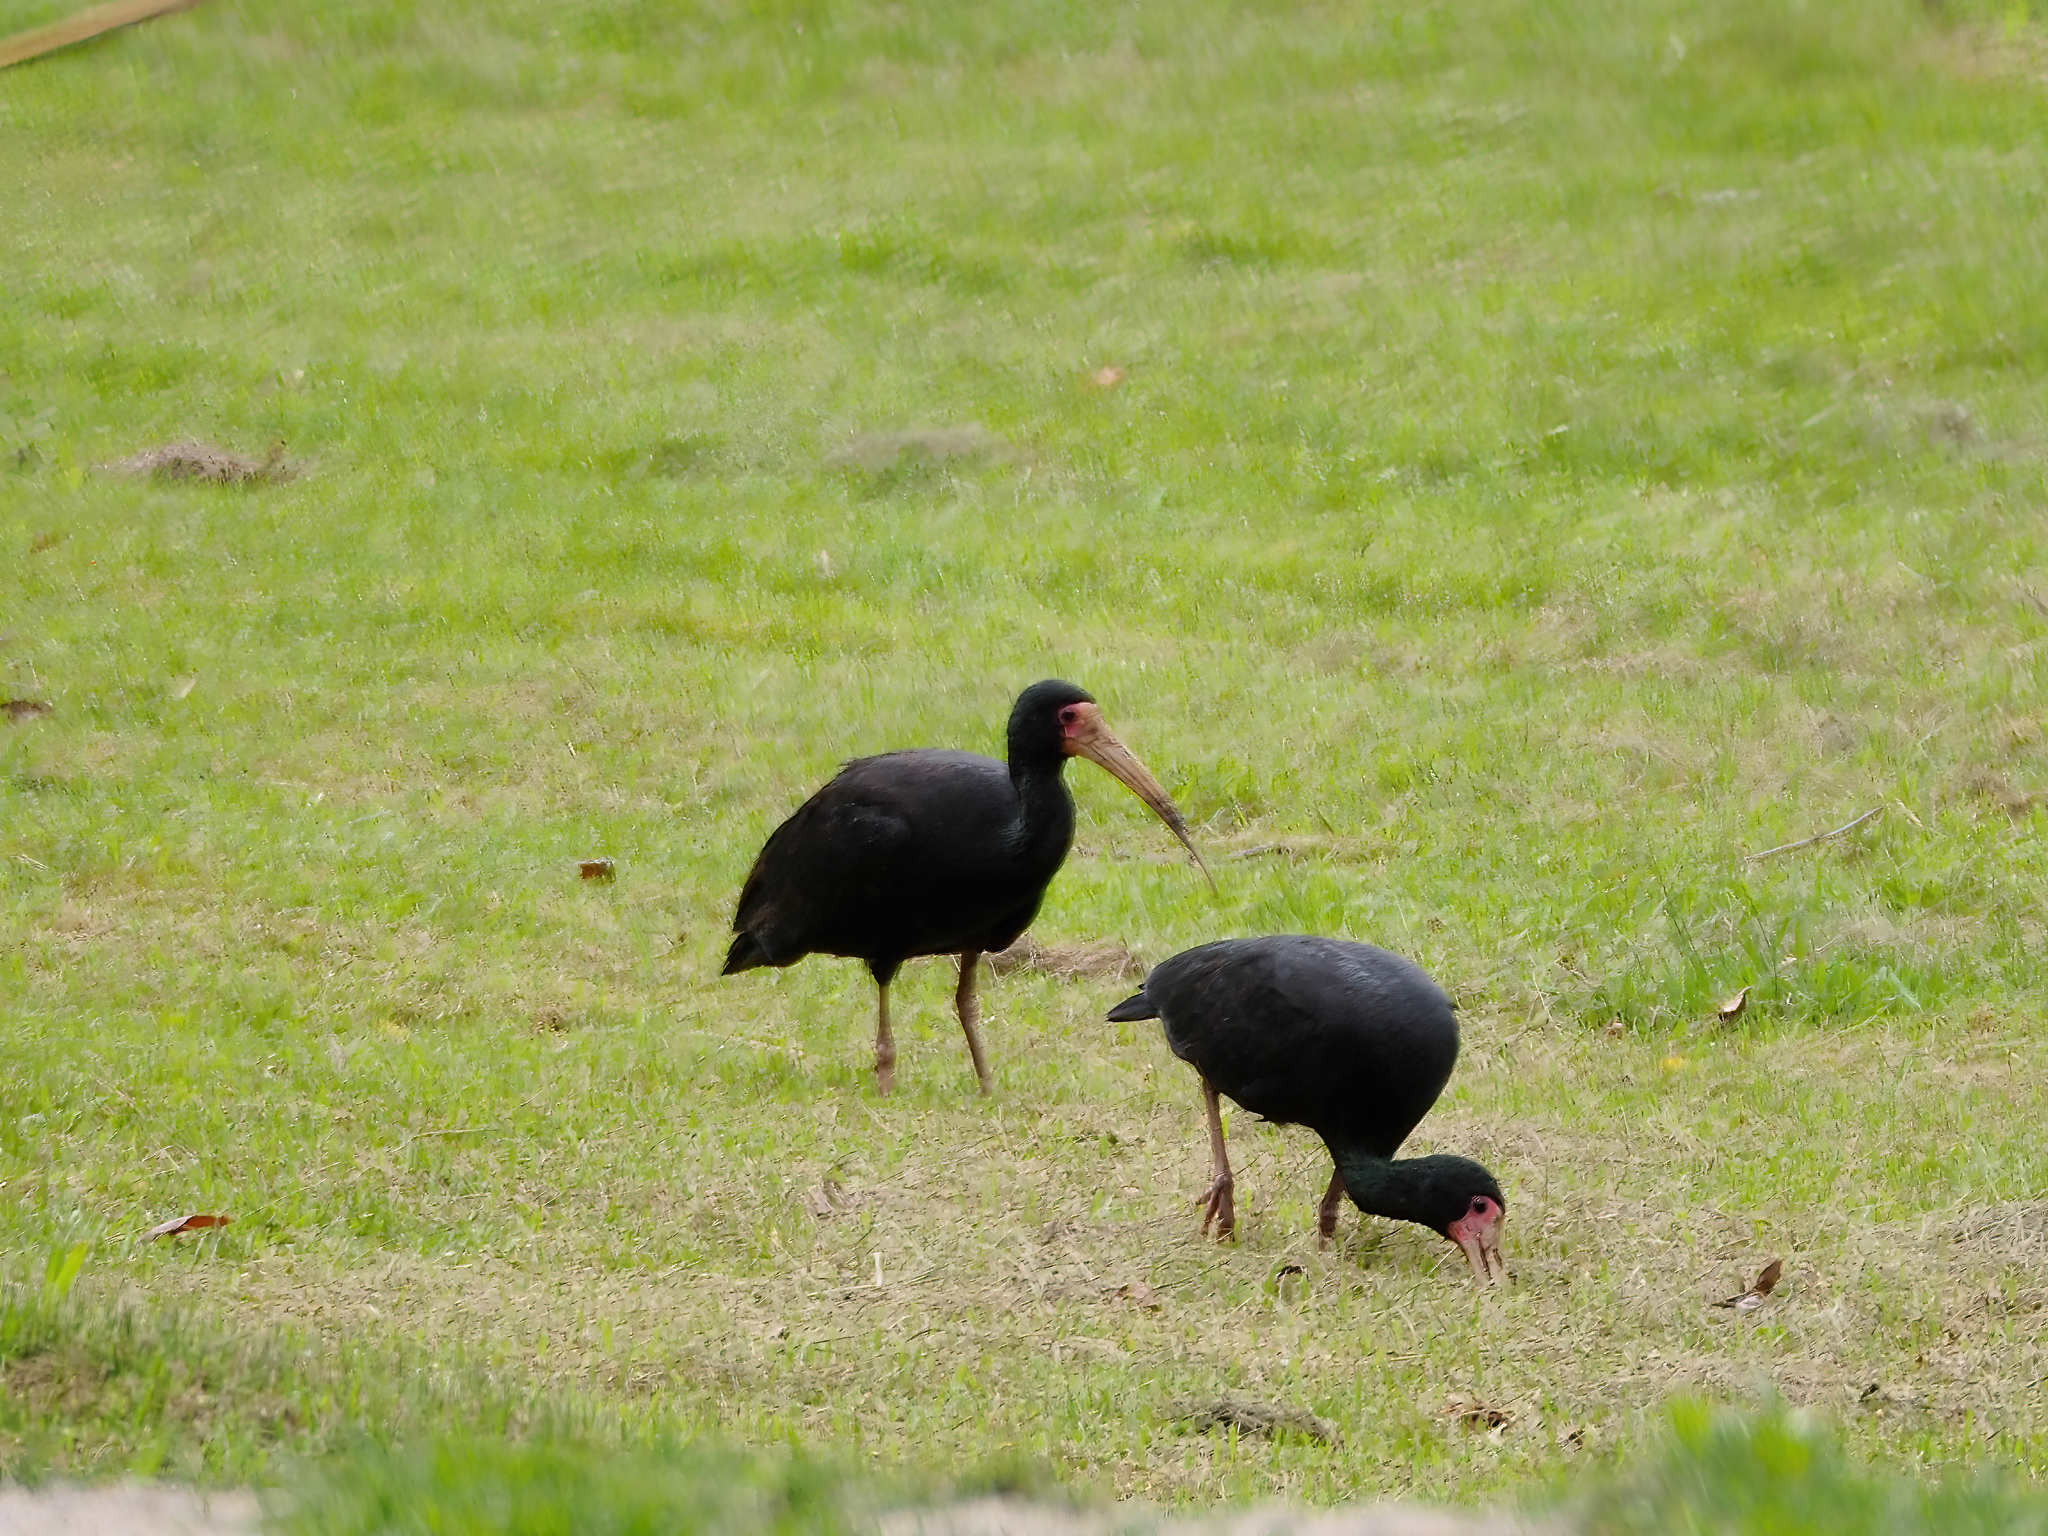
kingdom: Animalia
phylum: Chordata
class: Aves
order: Pelecaniformes
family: Threskiornithidae
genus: Phimosus
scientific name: Phimosus infuscatus
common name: Bare-faced ibis
